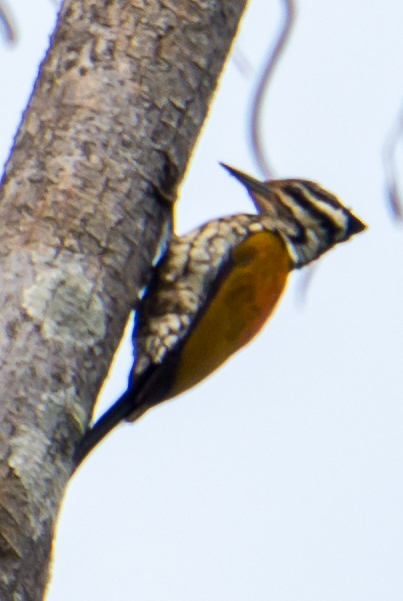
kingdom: Animalia
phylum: Chordata
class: Aves
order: Piciformes
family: Picidae
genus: Dinopium
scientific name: Dinopium javanense
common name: Common flameback
